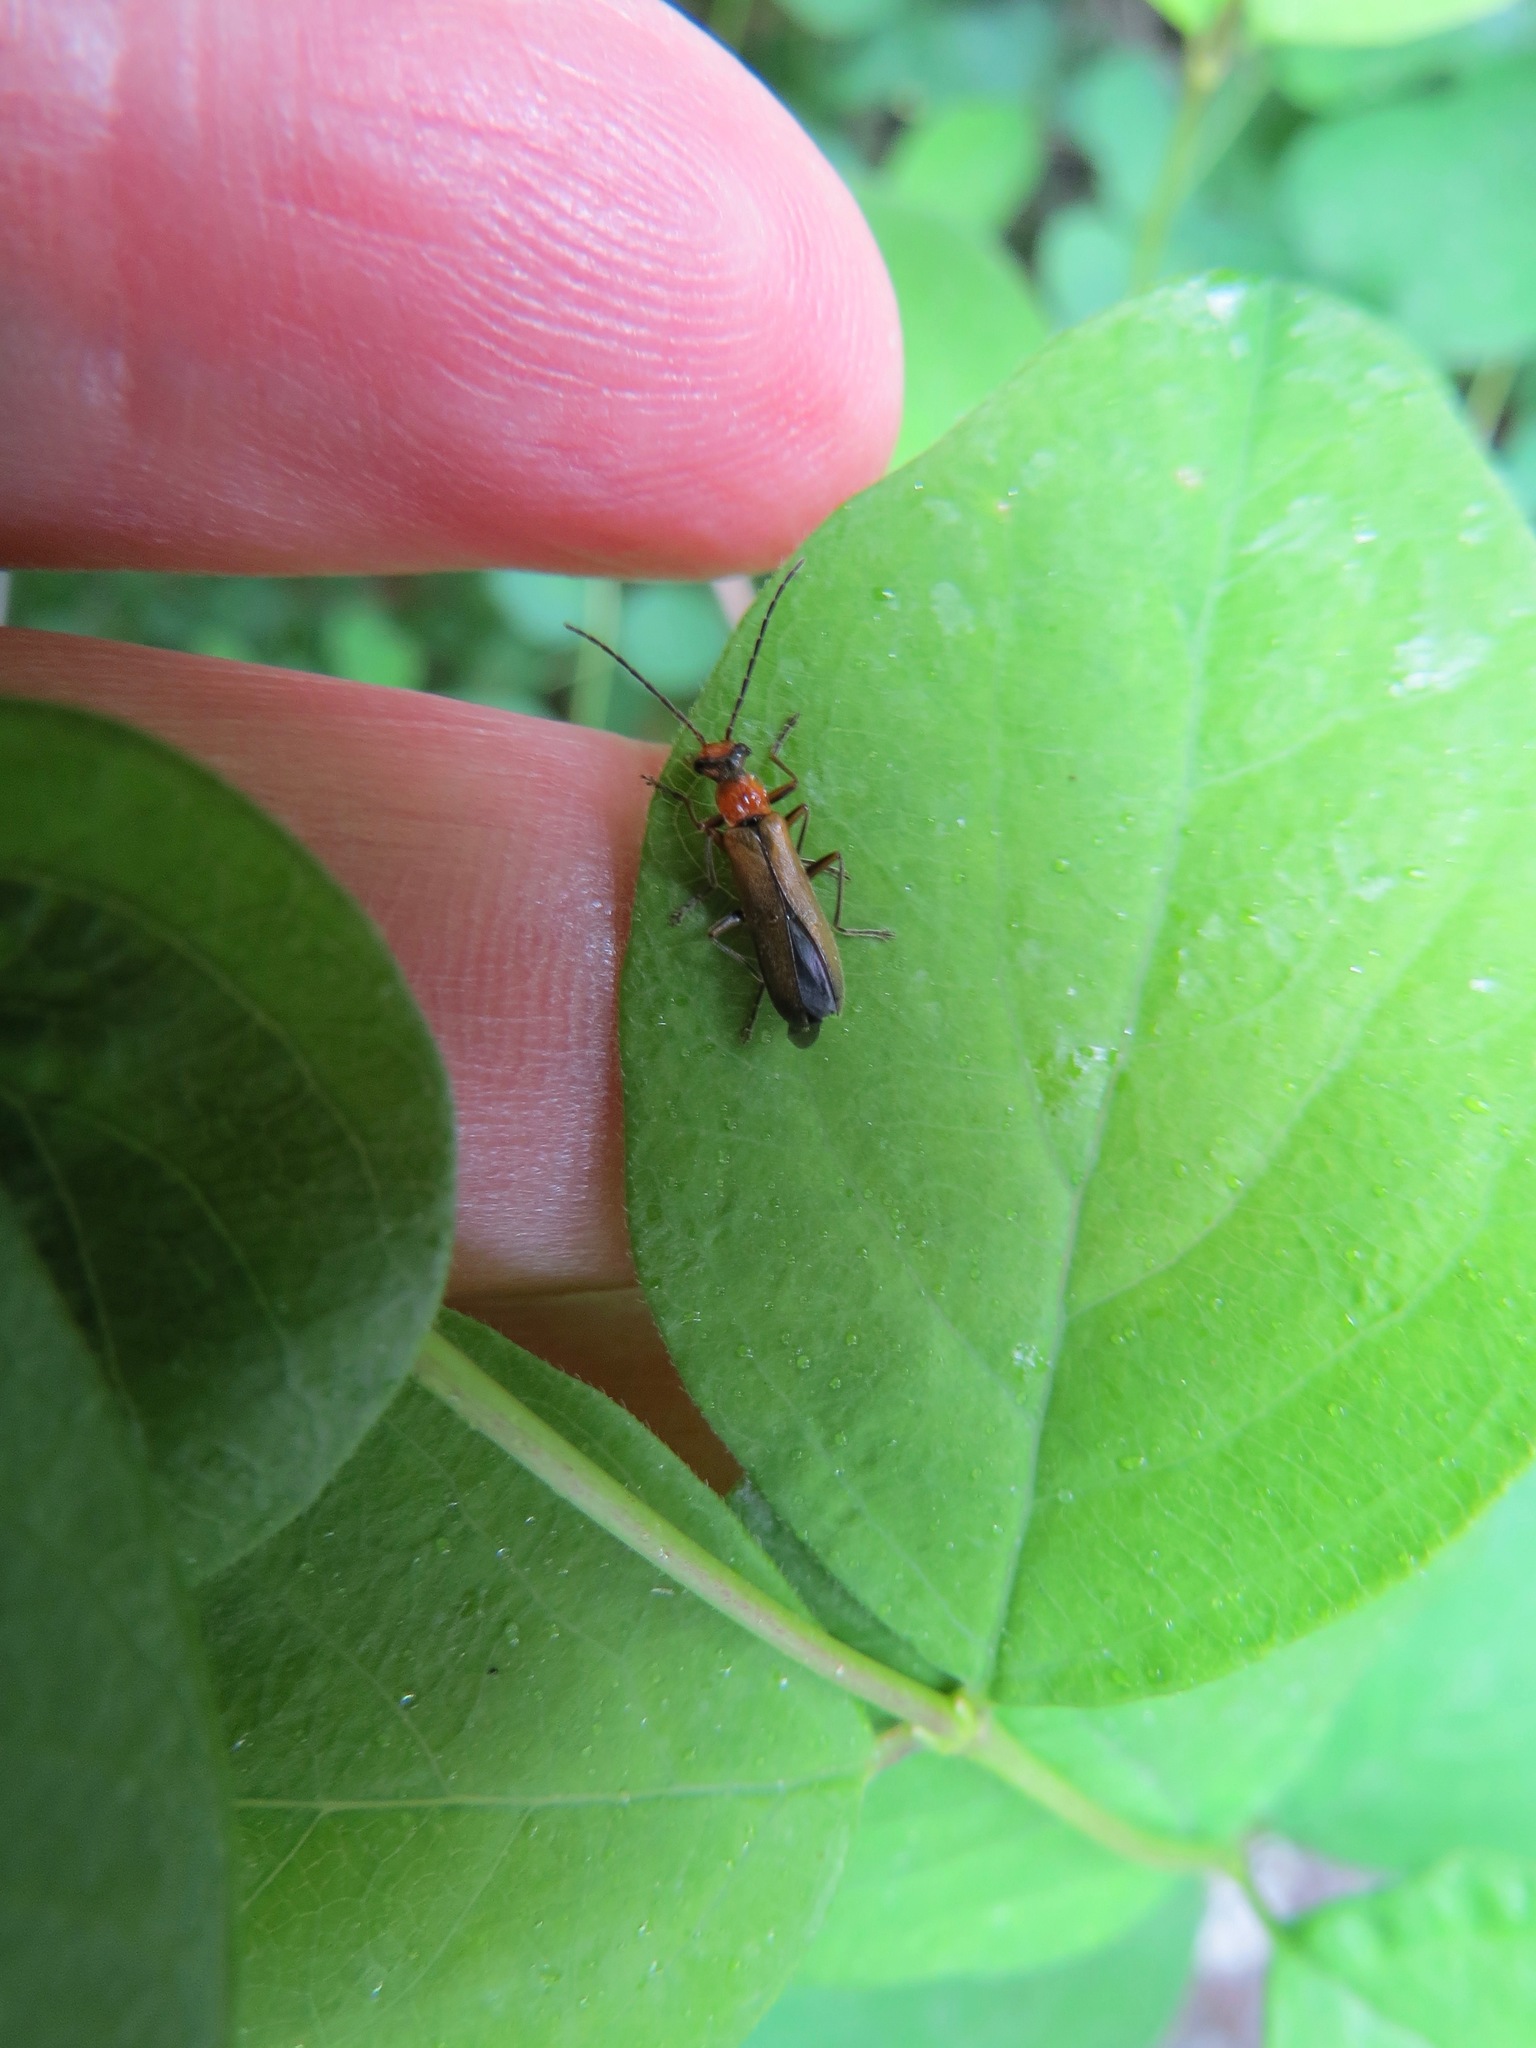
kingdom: Animalia
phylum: Arthropoda
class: Insecta
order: Coleoptera
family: Cantharidae
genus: Dichelotarsus
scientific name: Dichelotarsus cavicollis
